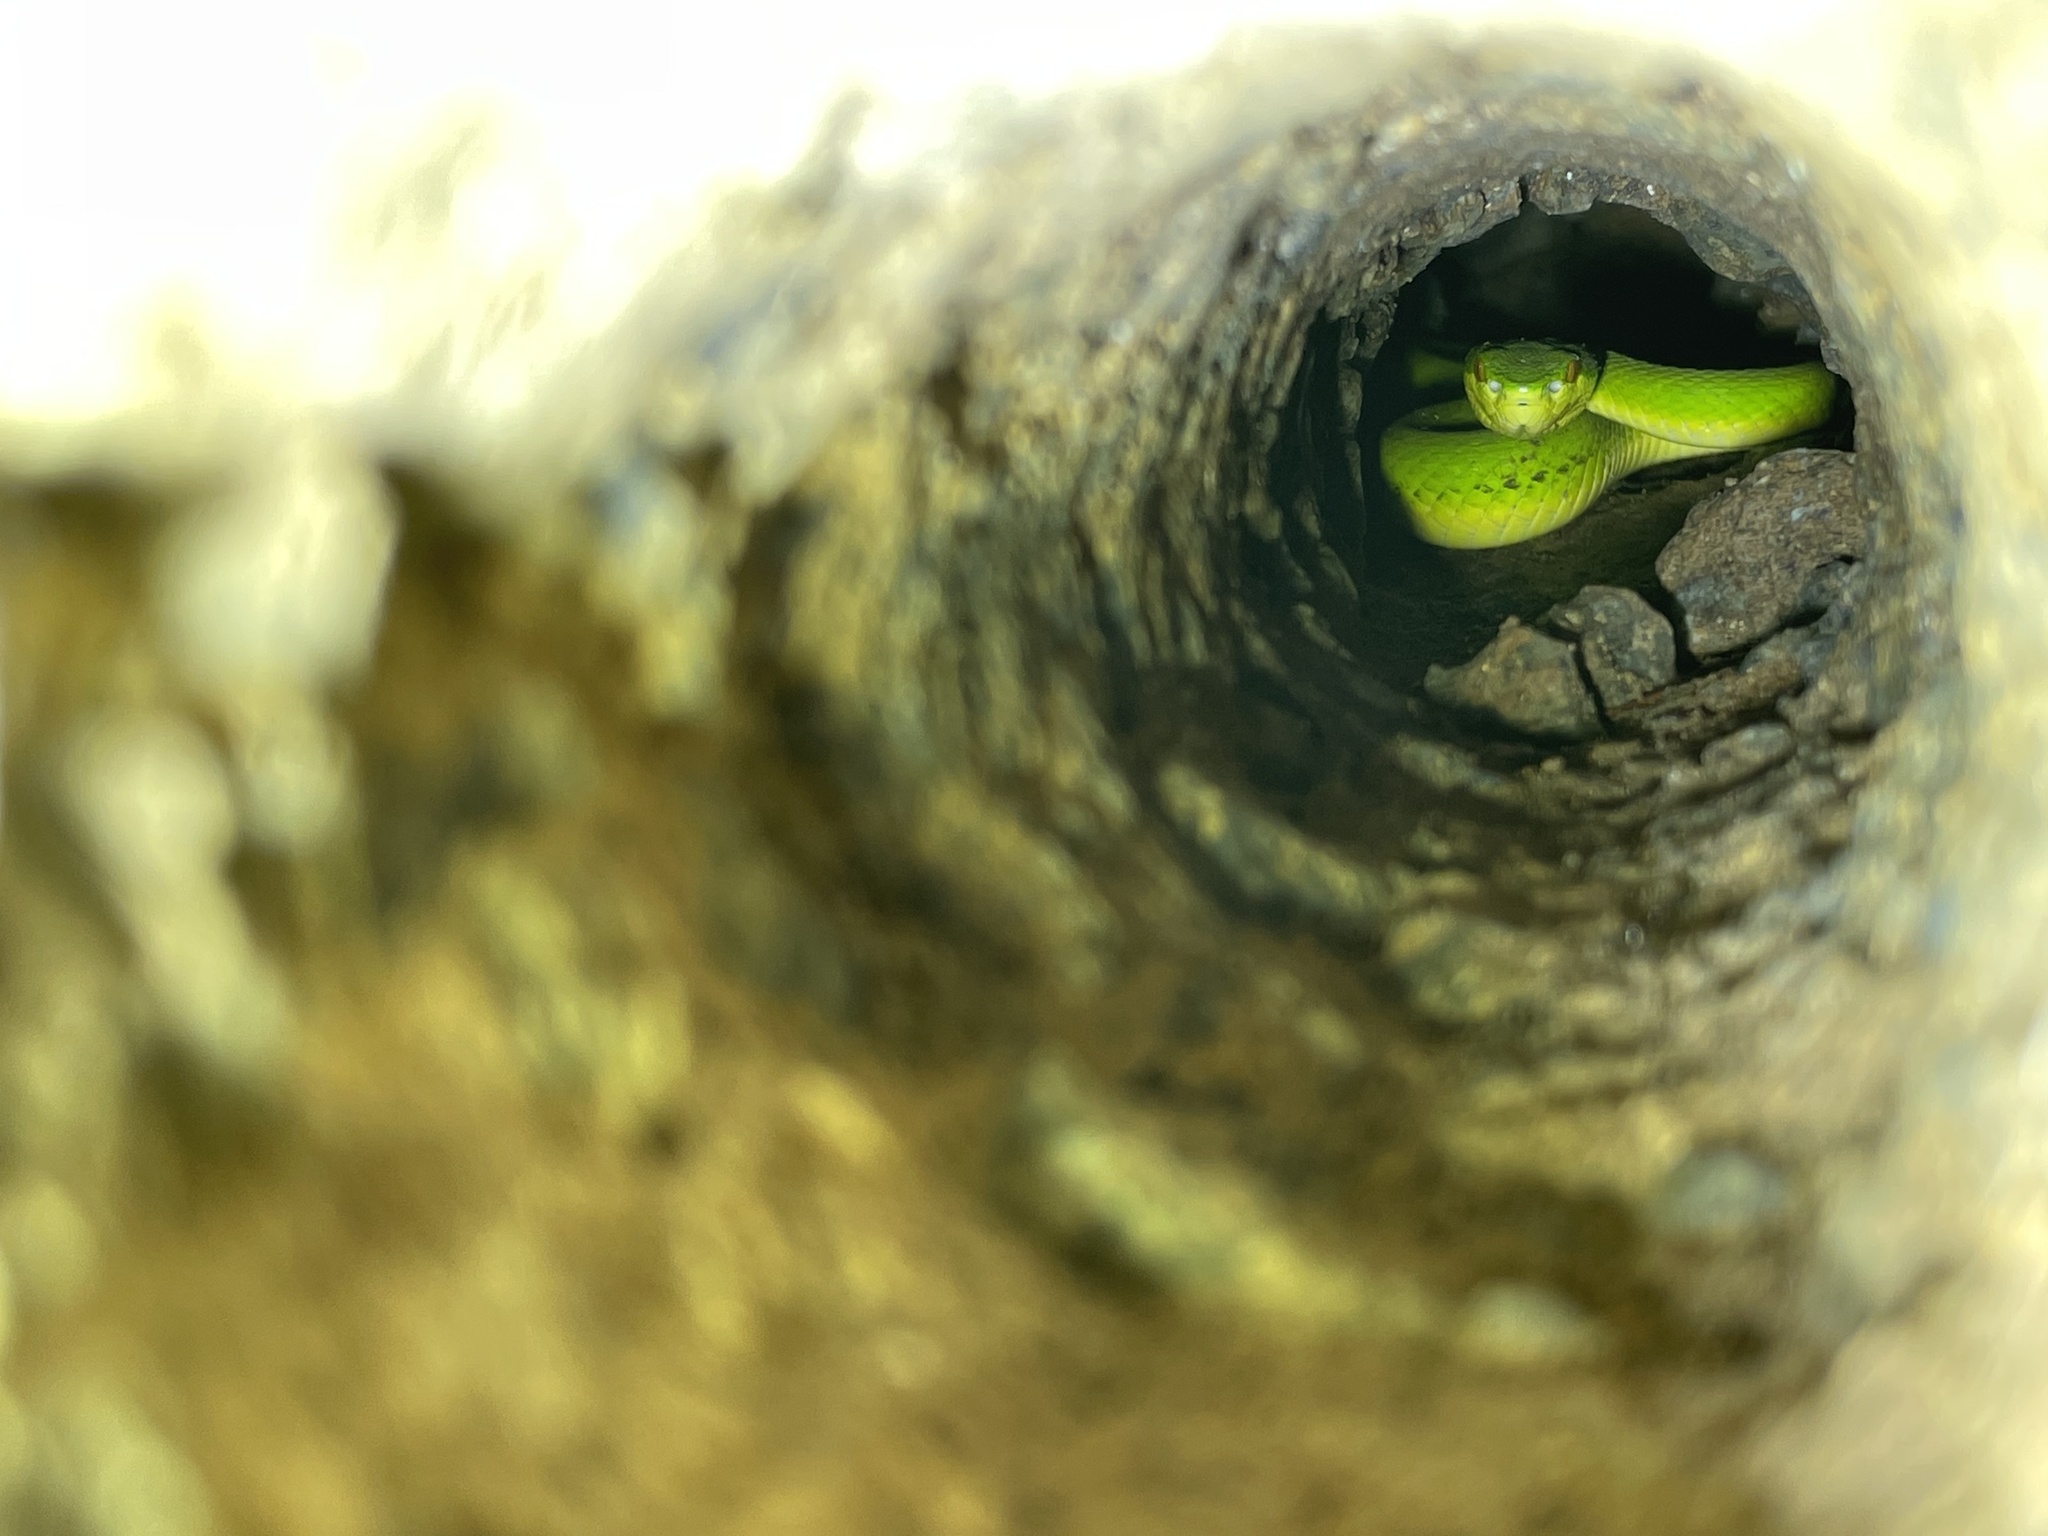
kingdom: Animalia
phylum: Chordata
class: Squamata
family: Viperidae
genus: Trimeresurus
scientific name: Trimeresurus albolabris
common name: White-lipped pitviper
